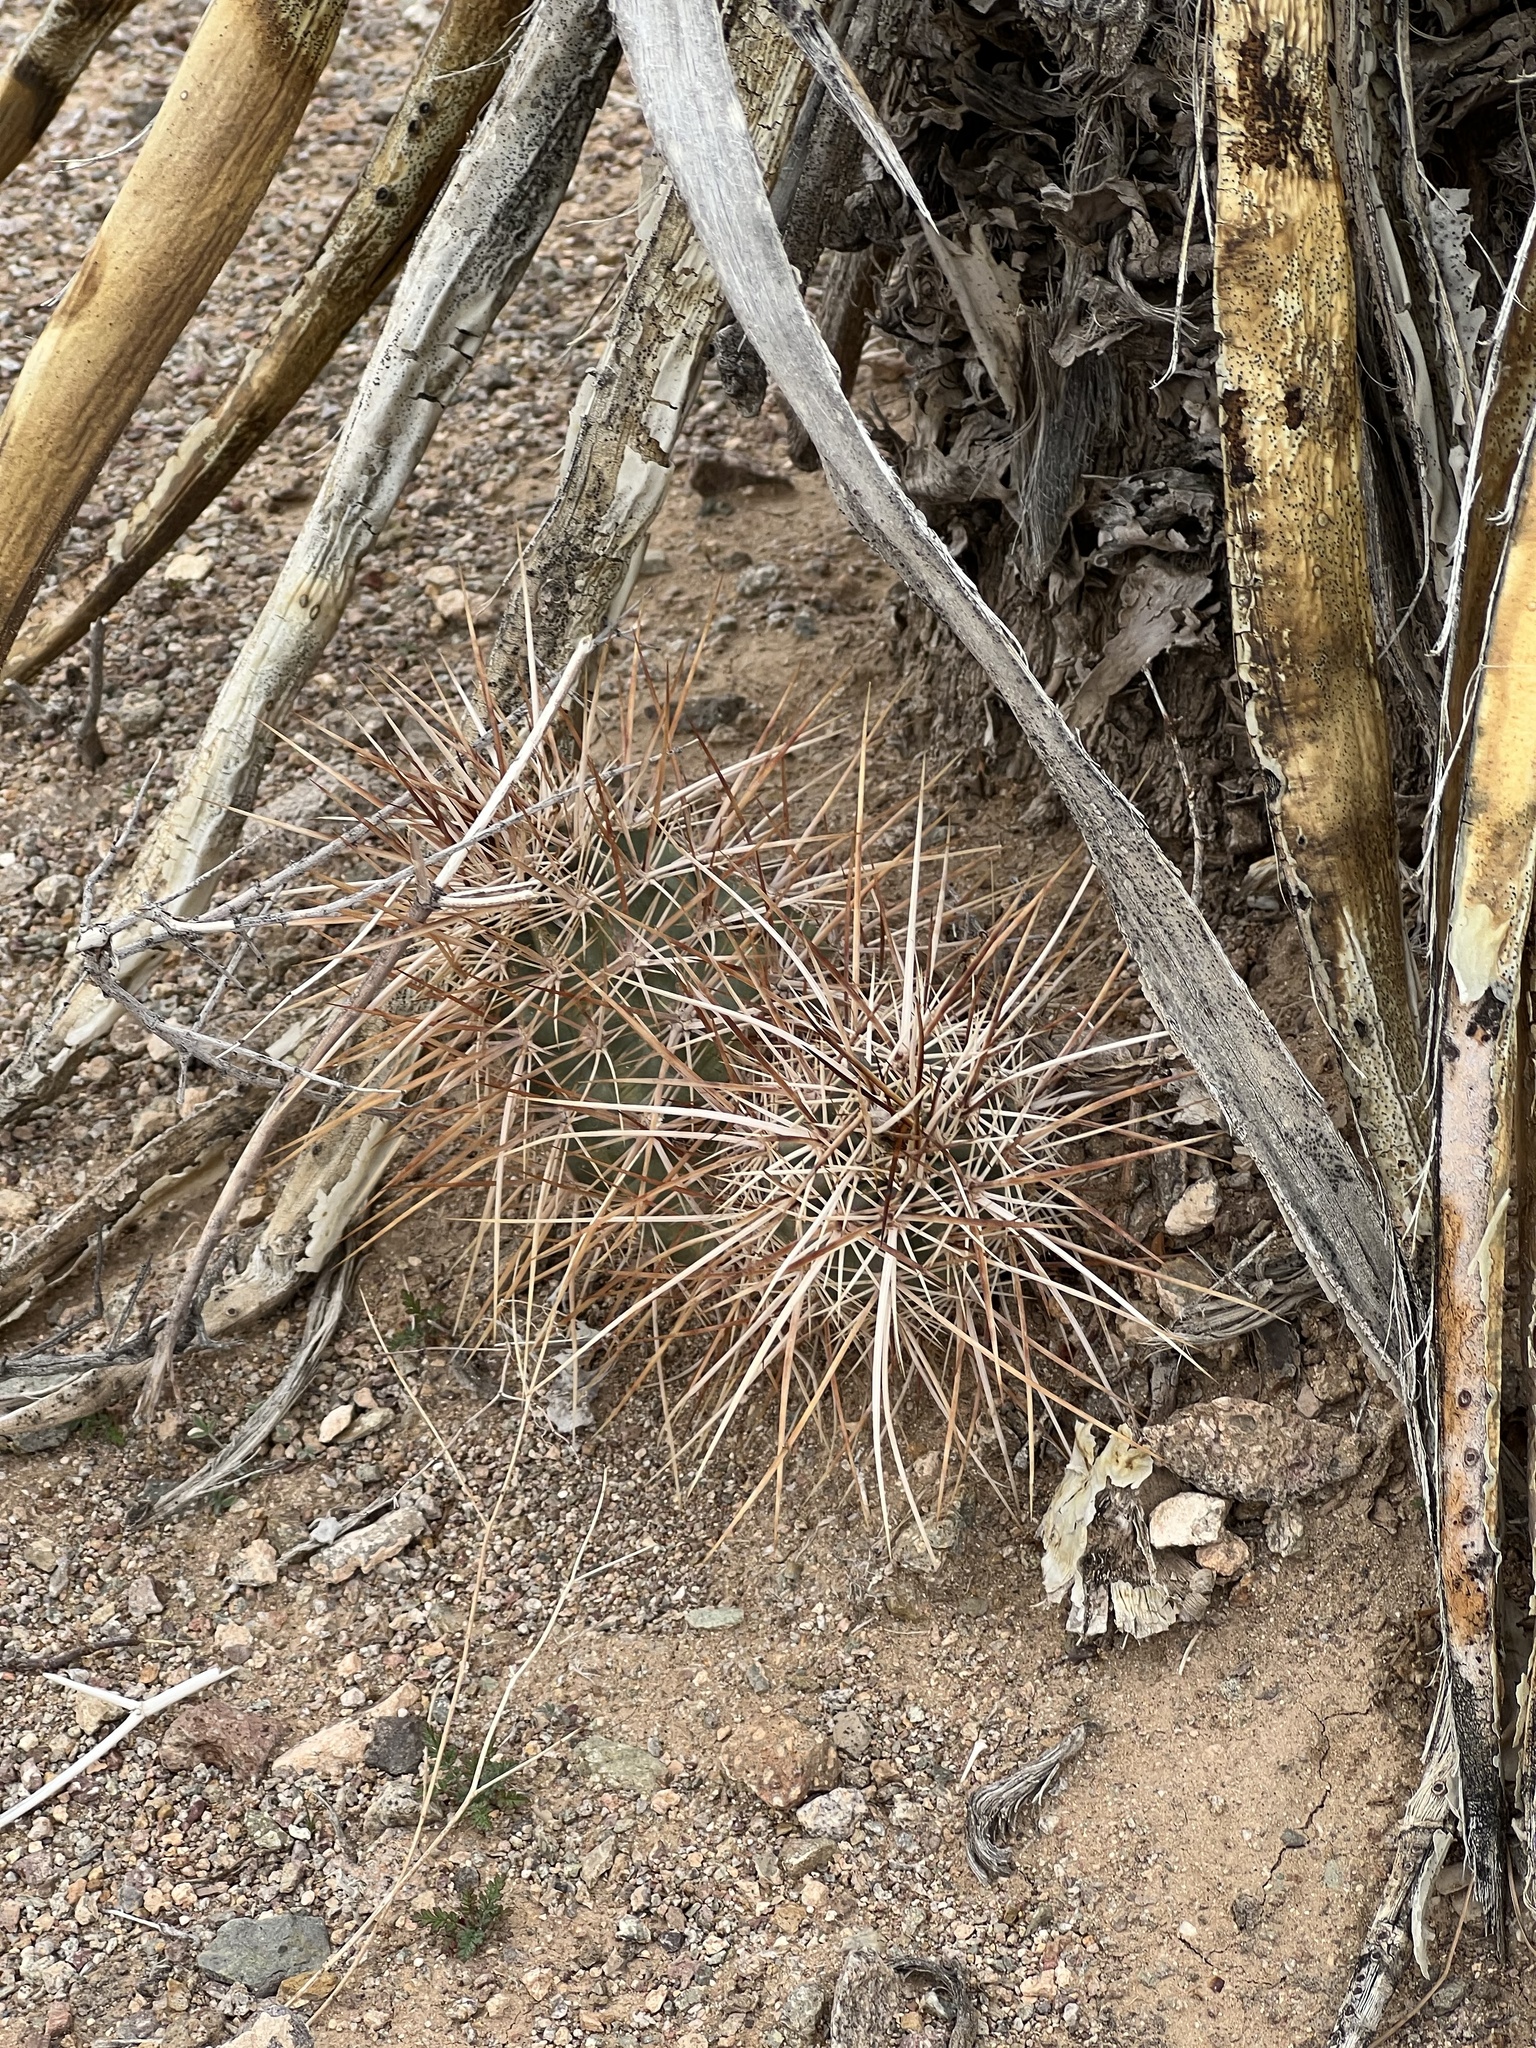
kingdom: Plantae
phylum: Tracheophyta
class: Magnoliopsida
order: Caryophyllales
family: Cactaceae
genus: Echinocereus
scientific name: Echinocereus engelmannii
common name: Engelmann's hedgehog cactus
